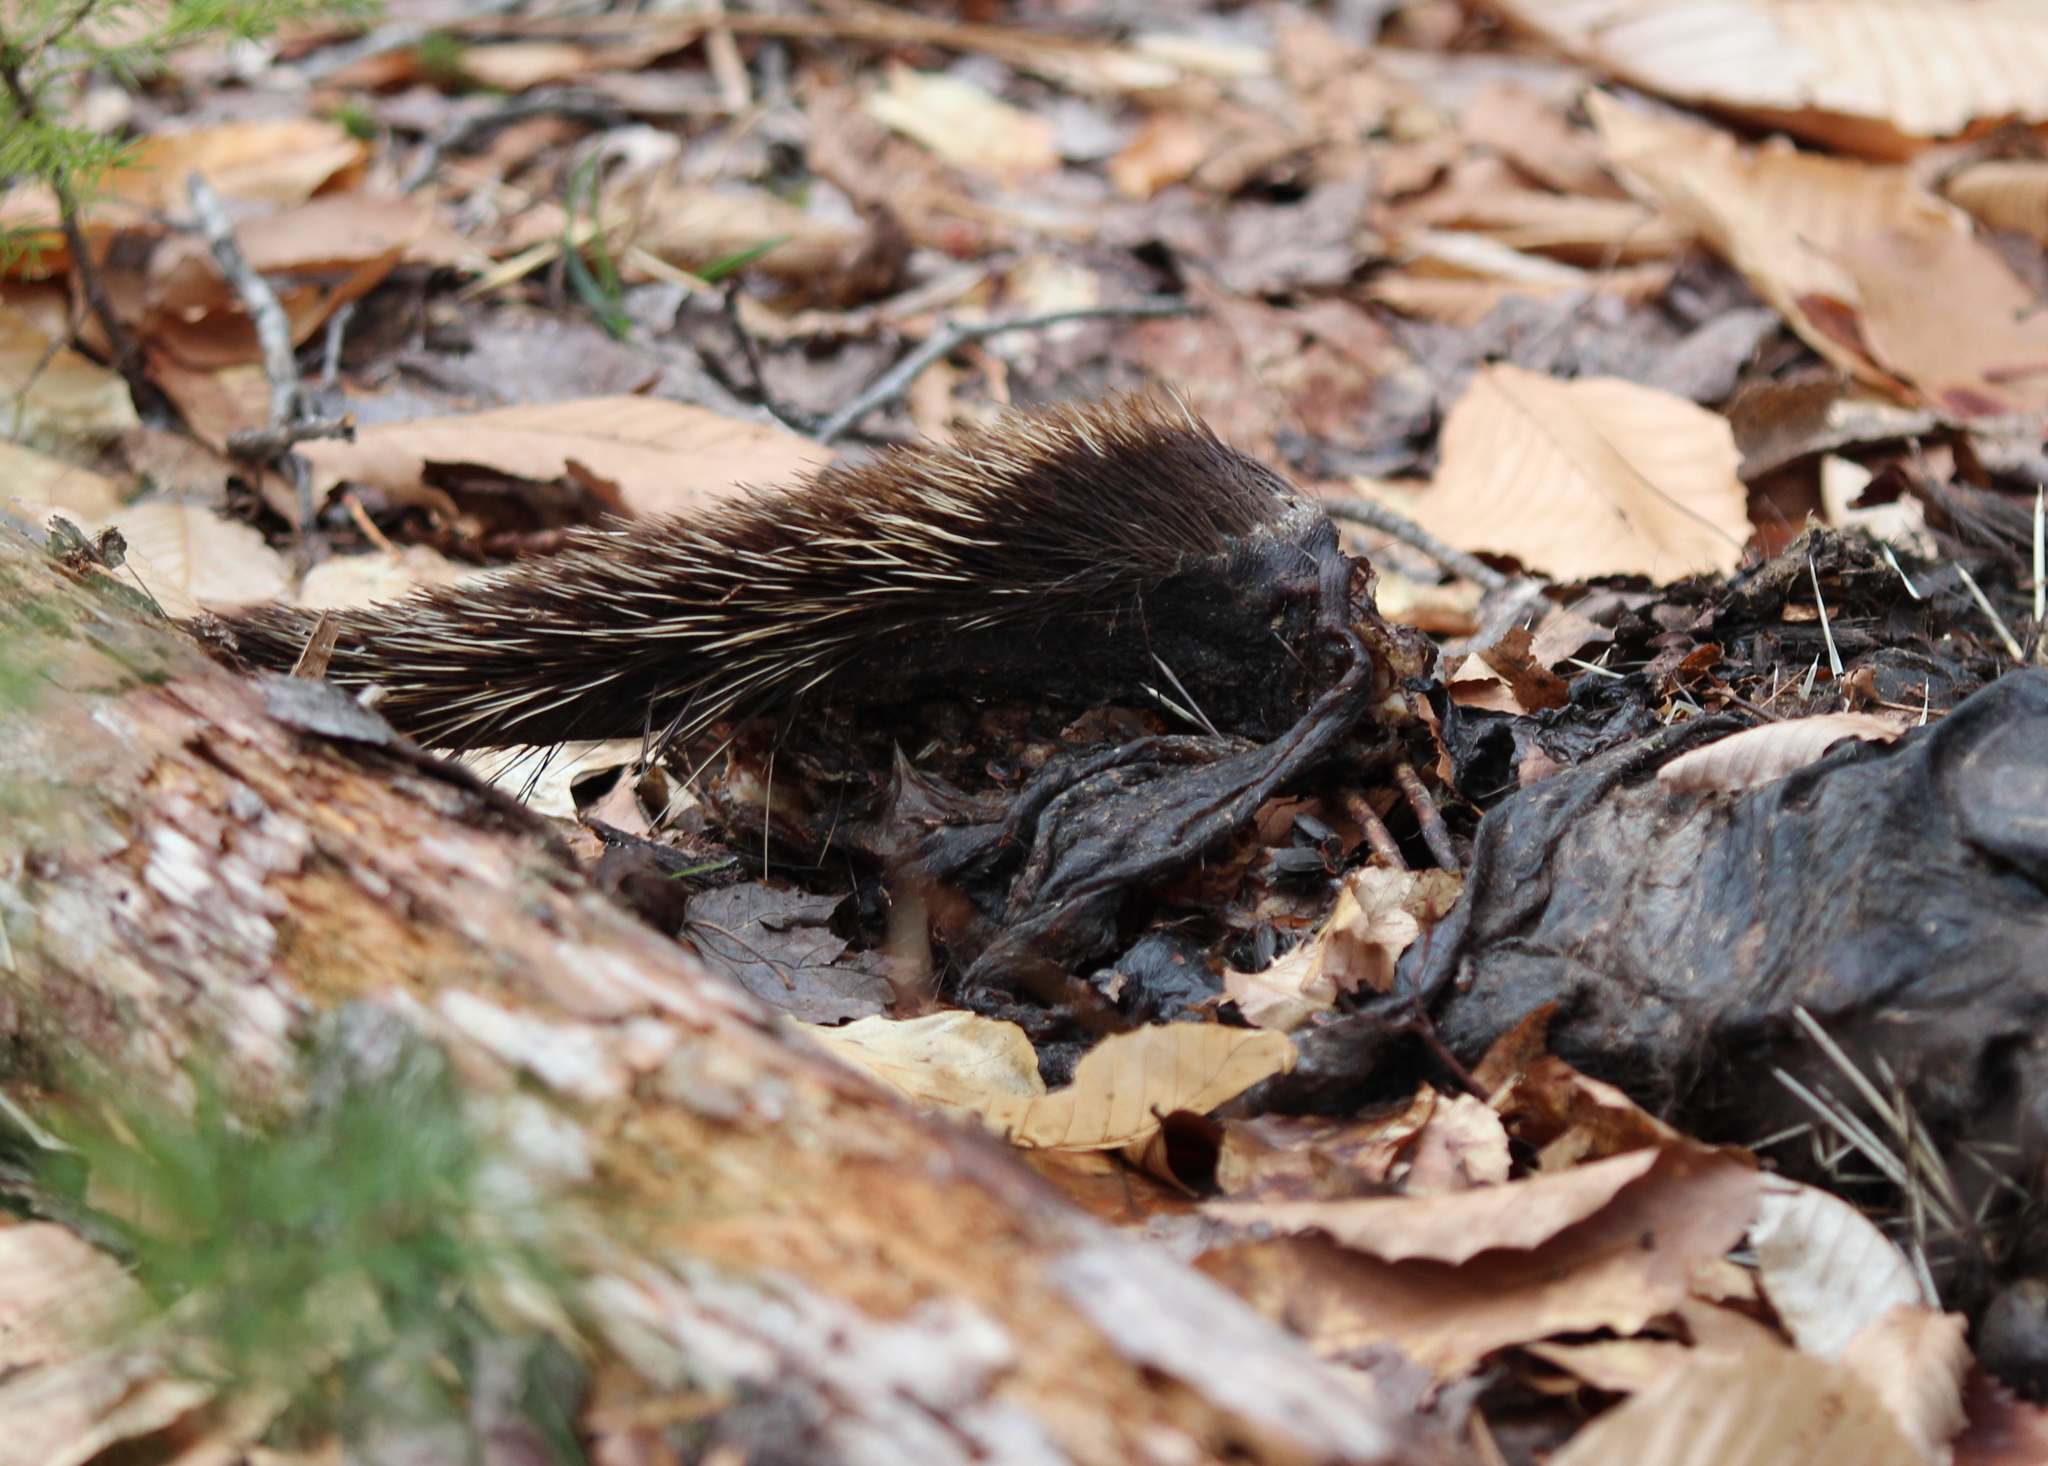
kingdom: Animalia
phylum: Chordata
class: Mammalia
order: Rodentia
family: Erethizontidae
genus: Erethizon
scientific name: Erethizon dorsatus
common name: North american porcupine
